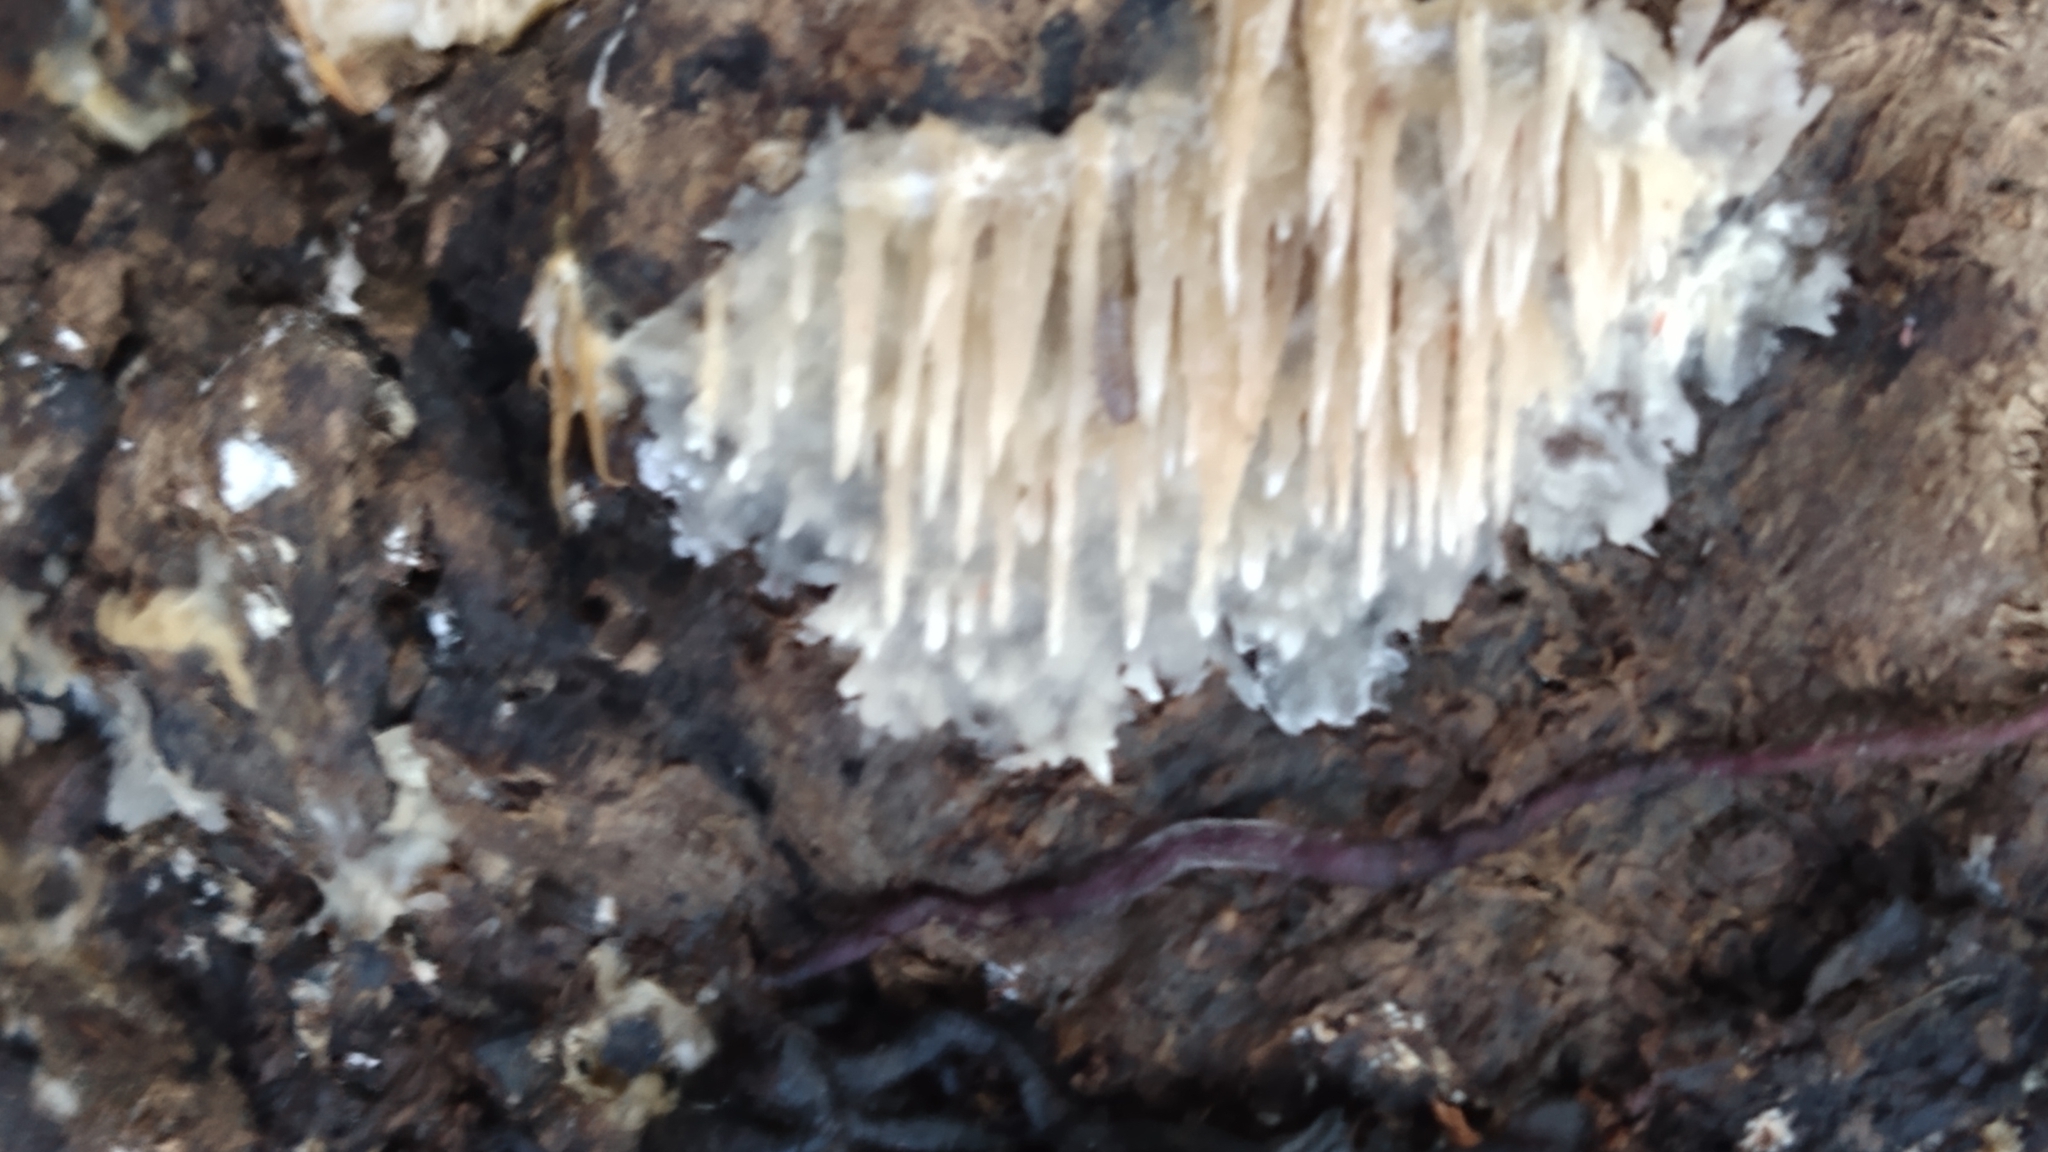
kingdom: Fungi
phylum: Basidiomycota
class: Agaricomycetes
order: Agaricales
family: Radulomycetaceae
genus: Radulomyces
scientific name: Radulomyces copelandii
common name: Asian beauty
